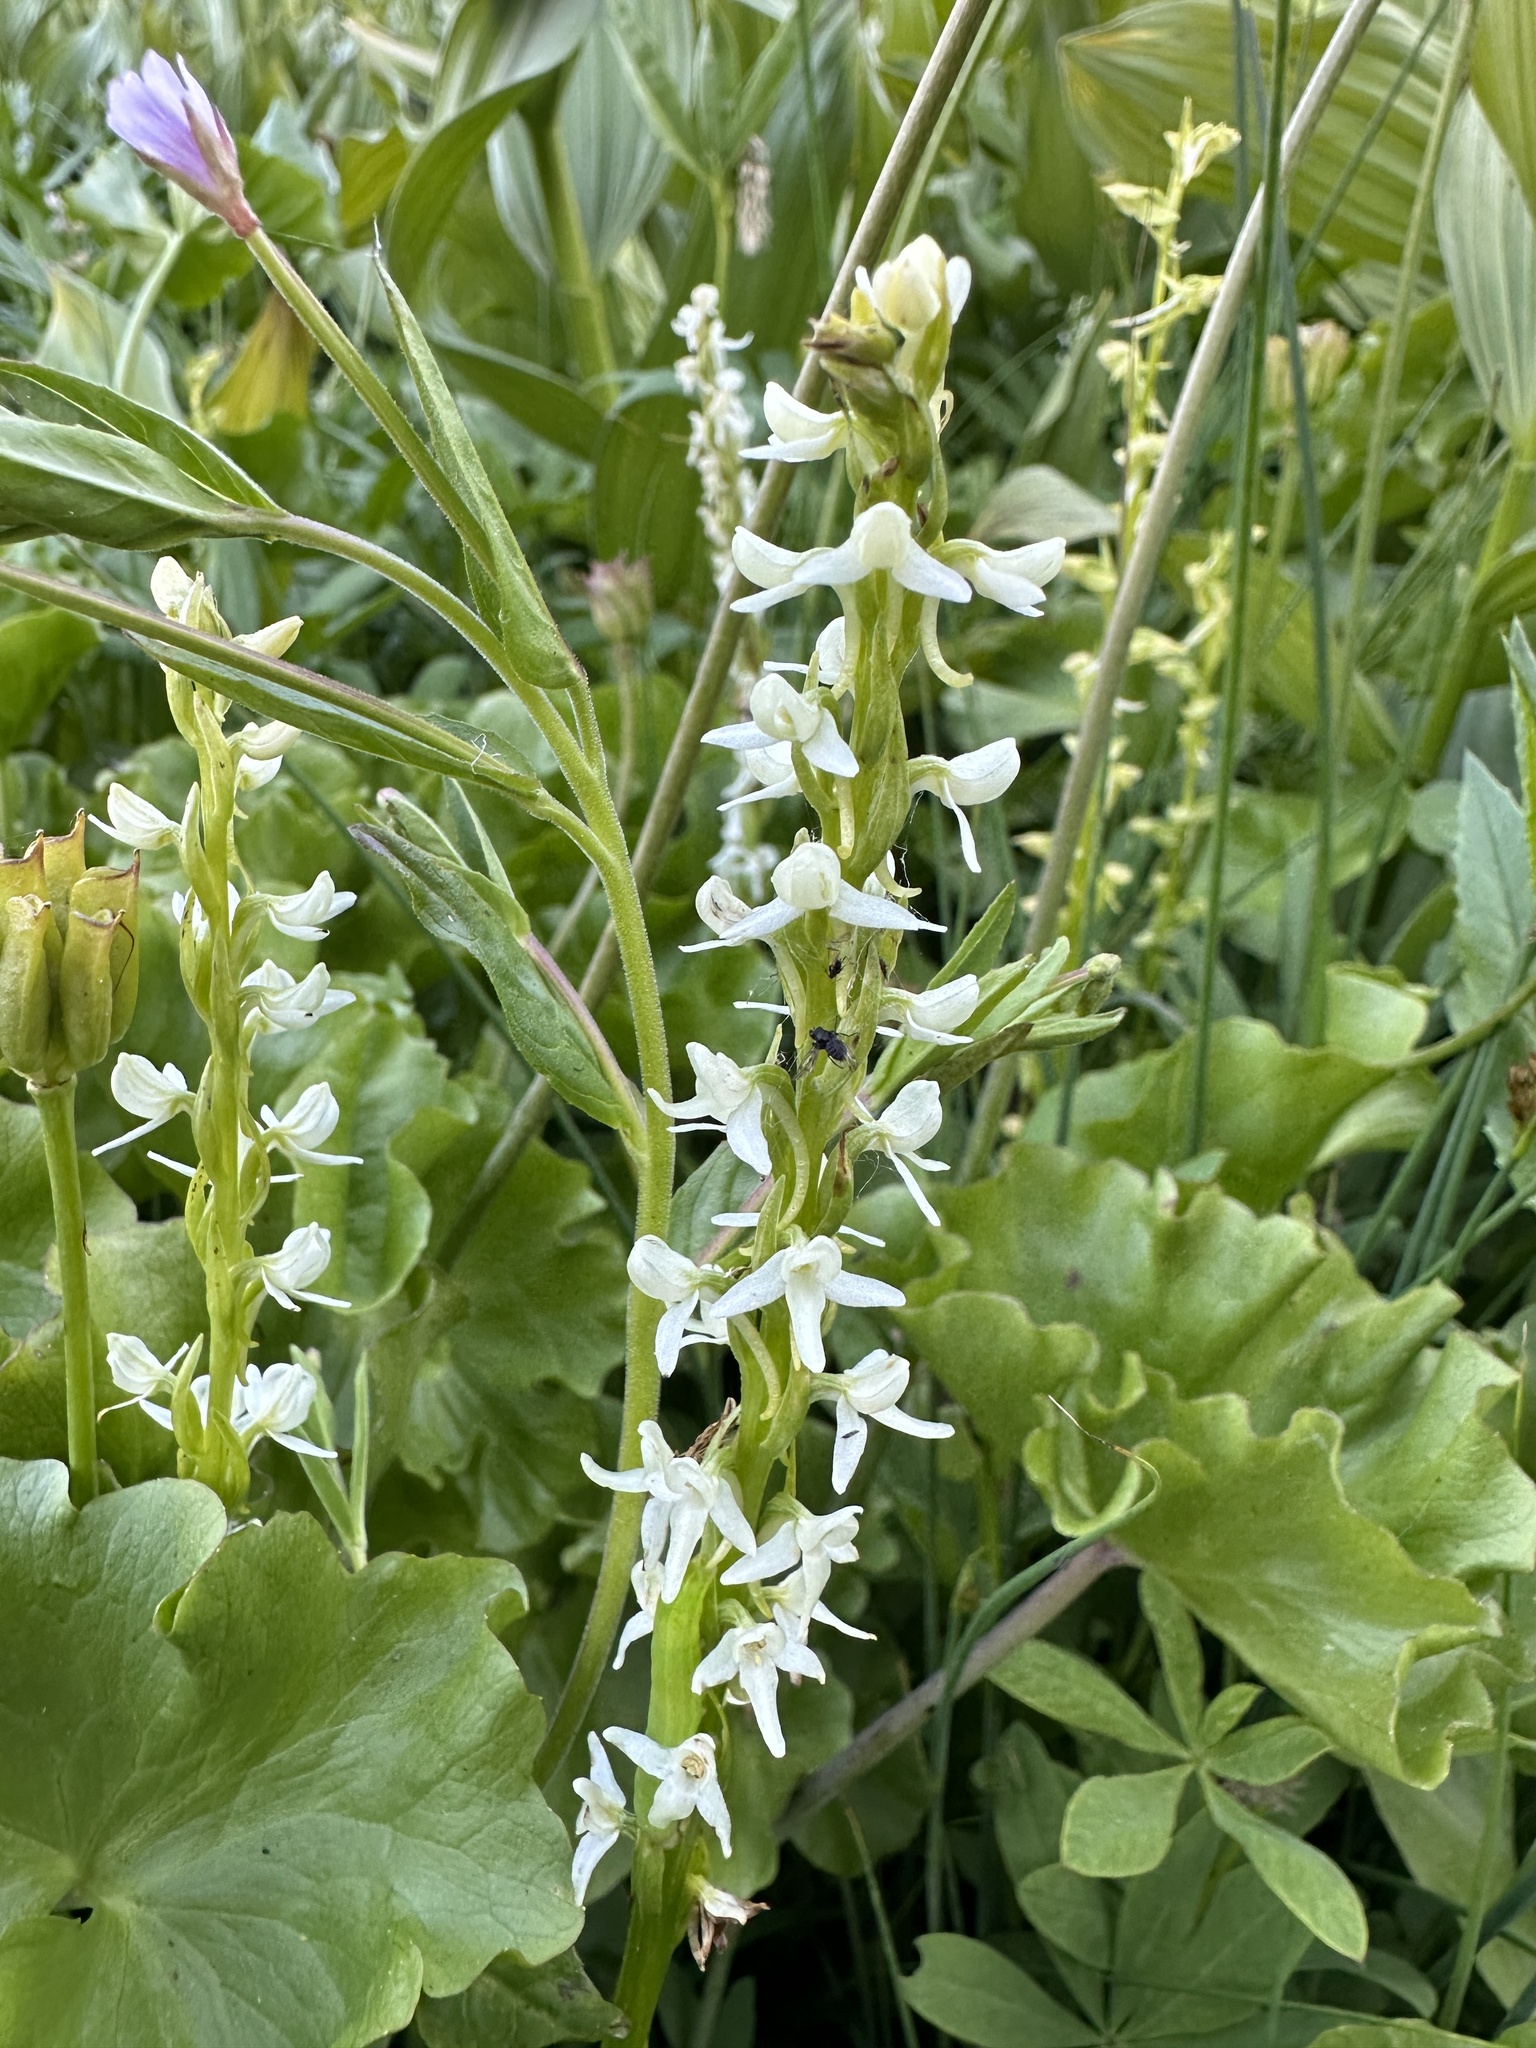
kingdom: Plantae
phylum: Tracheophyta
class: Liliopsida
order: Asparagales
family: Orchidaceae
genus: Platanthera
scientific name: Platanthera dilatata
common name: Bog candles
